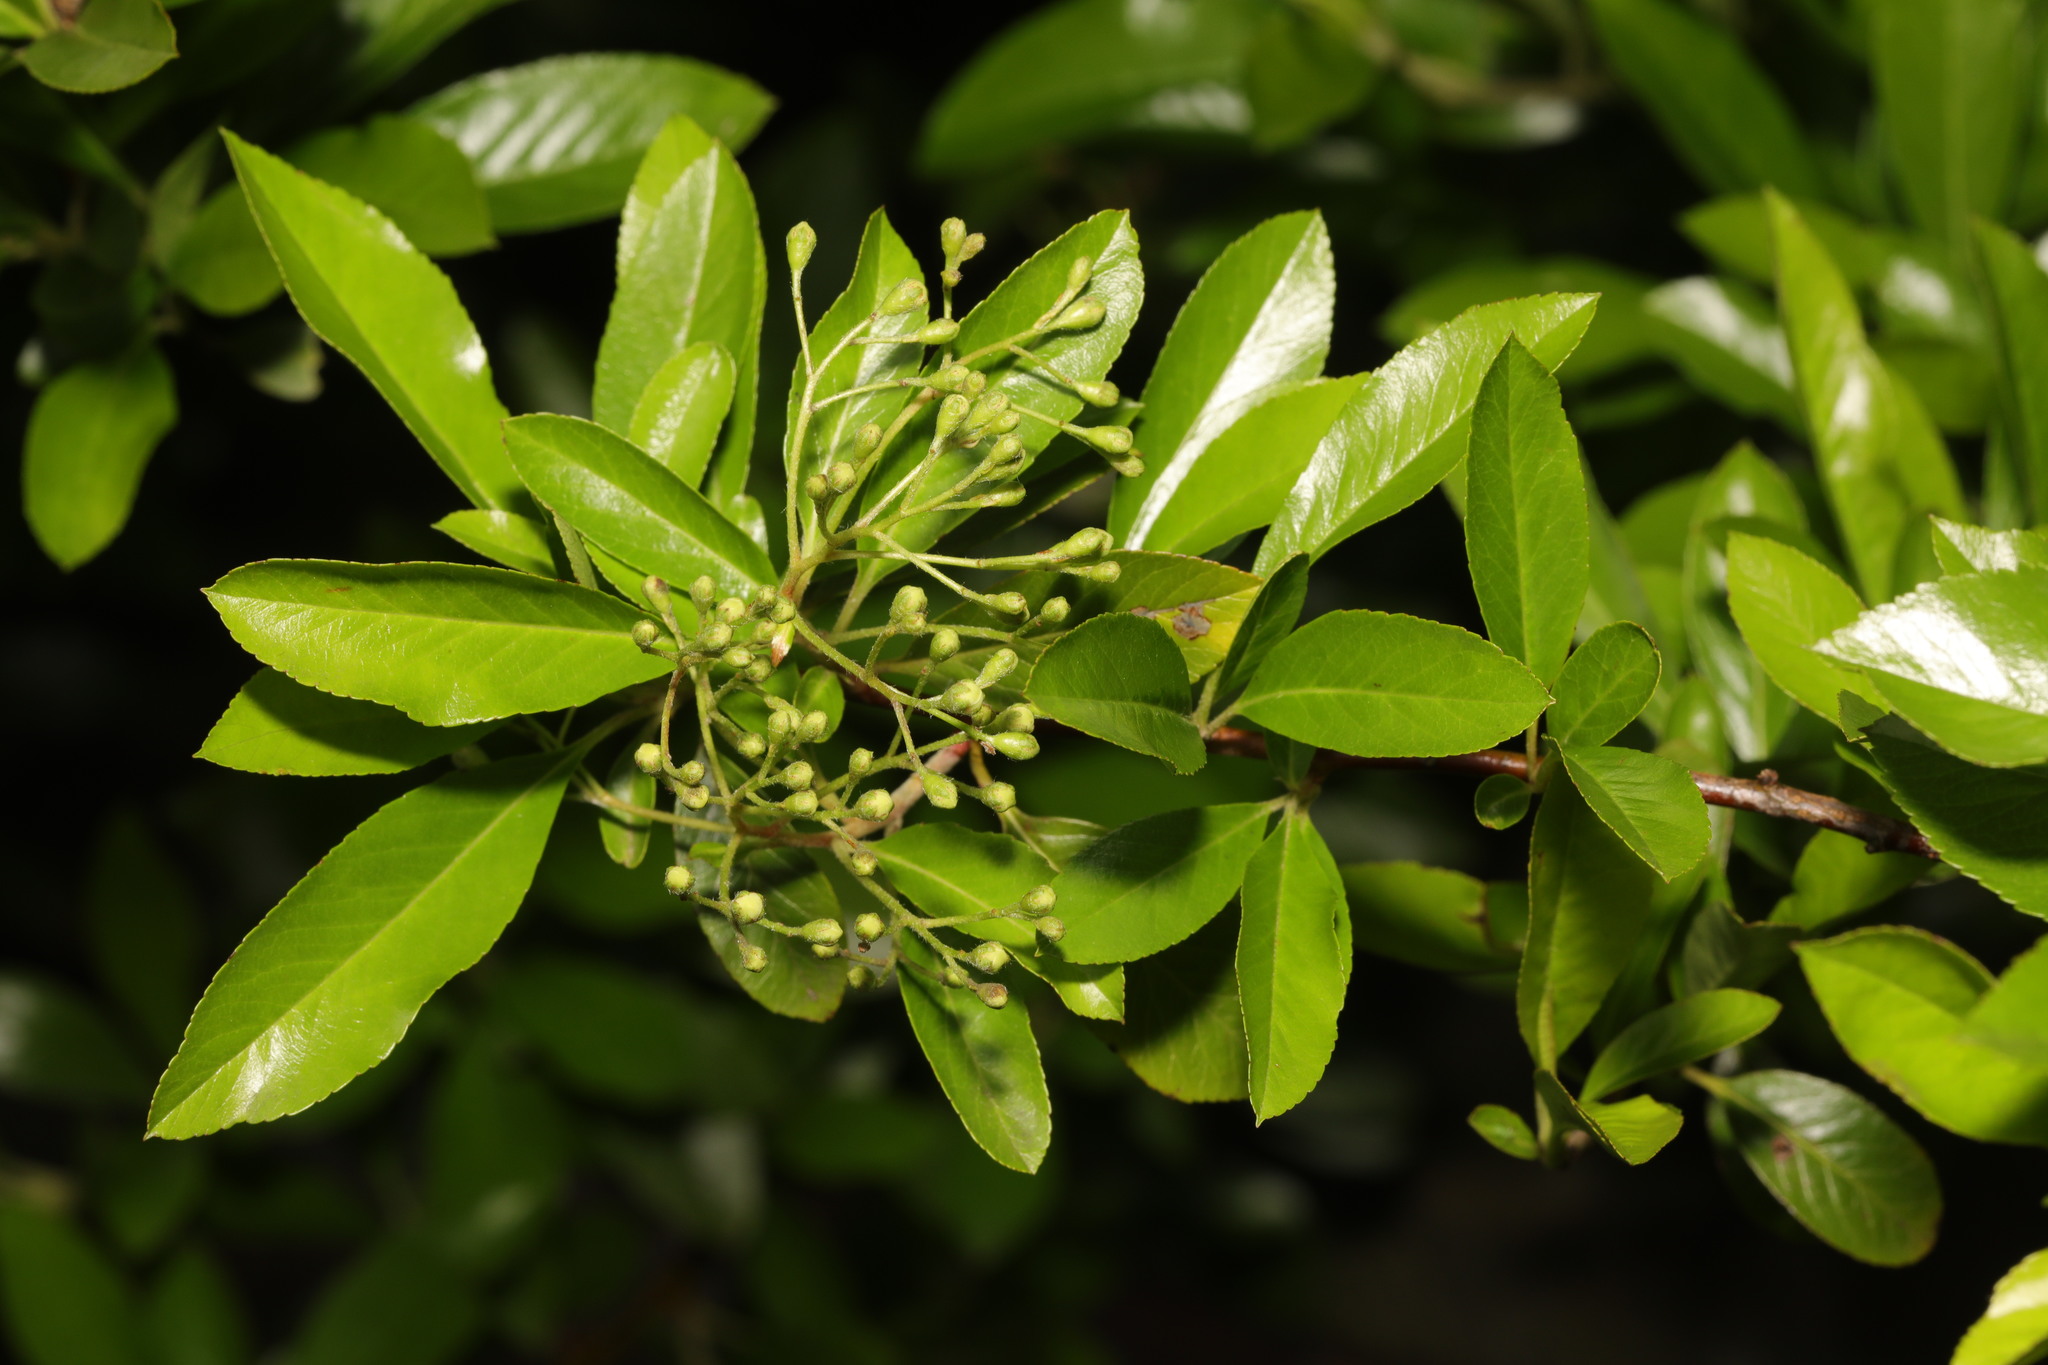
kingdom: Plantae
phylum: Tracheophyta
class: Magnoliopsida
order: Rosales
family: Rosaceae
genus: Pyracantha
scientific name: Pyracantha coccinea
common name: Firethorn
